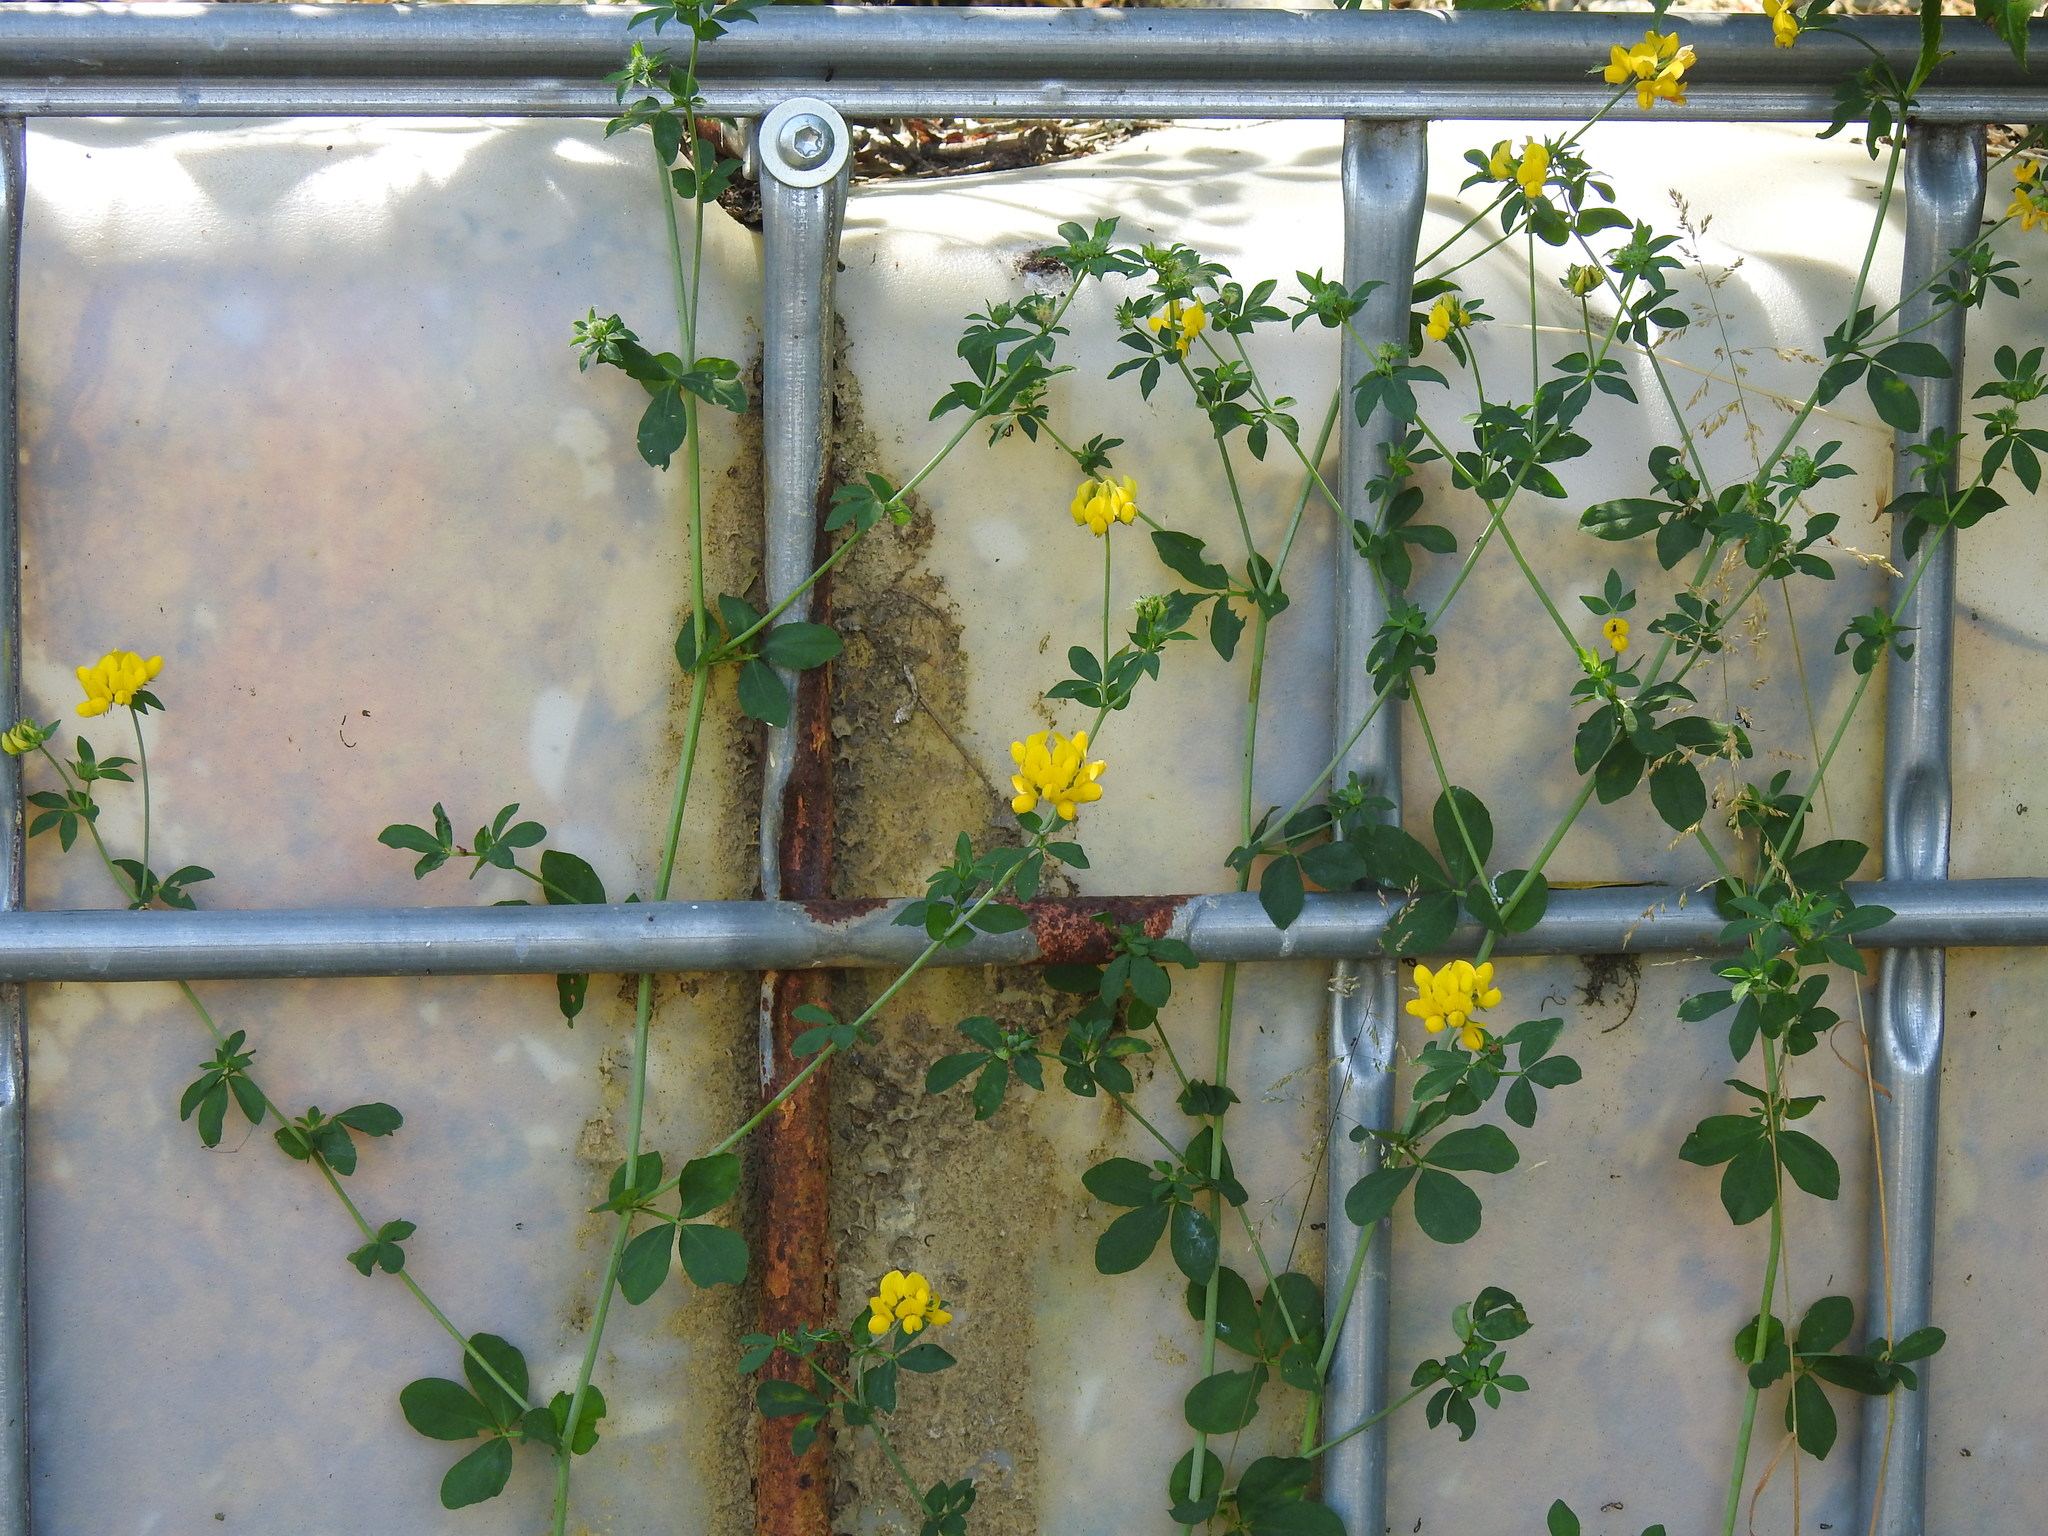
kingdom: Plantae
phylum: Tracheophyta
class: Magnoliopsida
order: Fabales
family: Fabaceae
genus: Lotus
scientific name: Lotus pedunculatus
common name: Greater birdsfoot-trefoil
